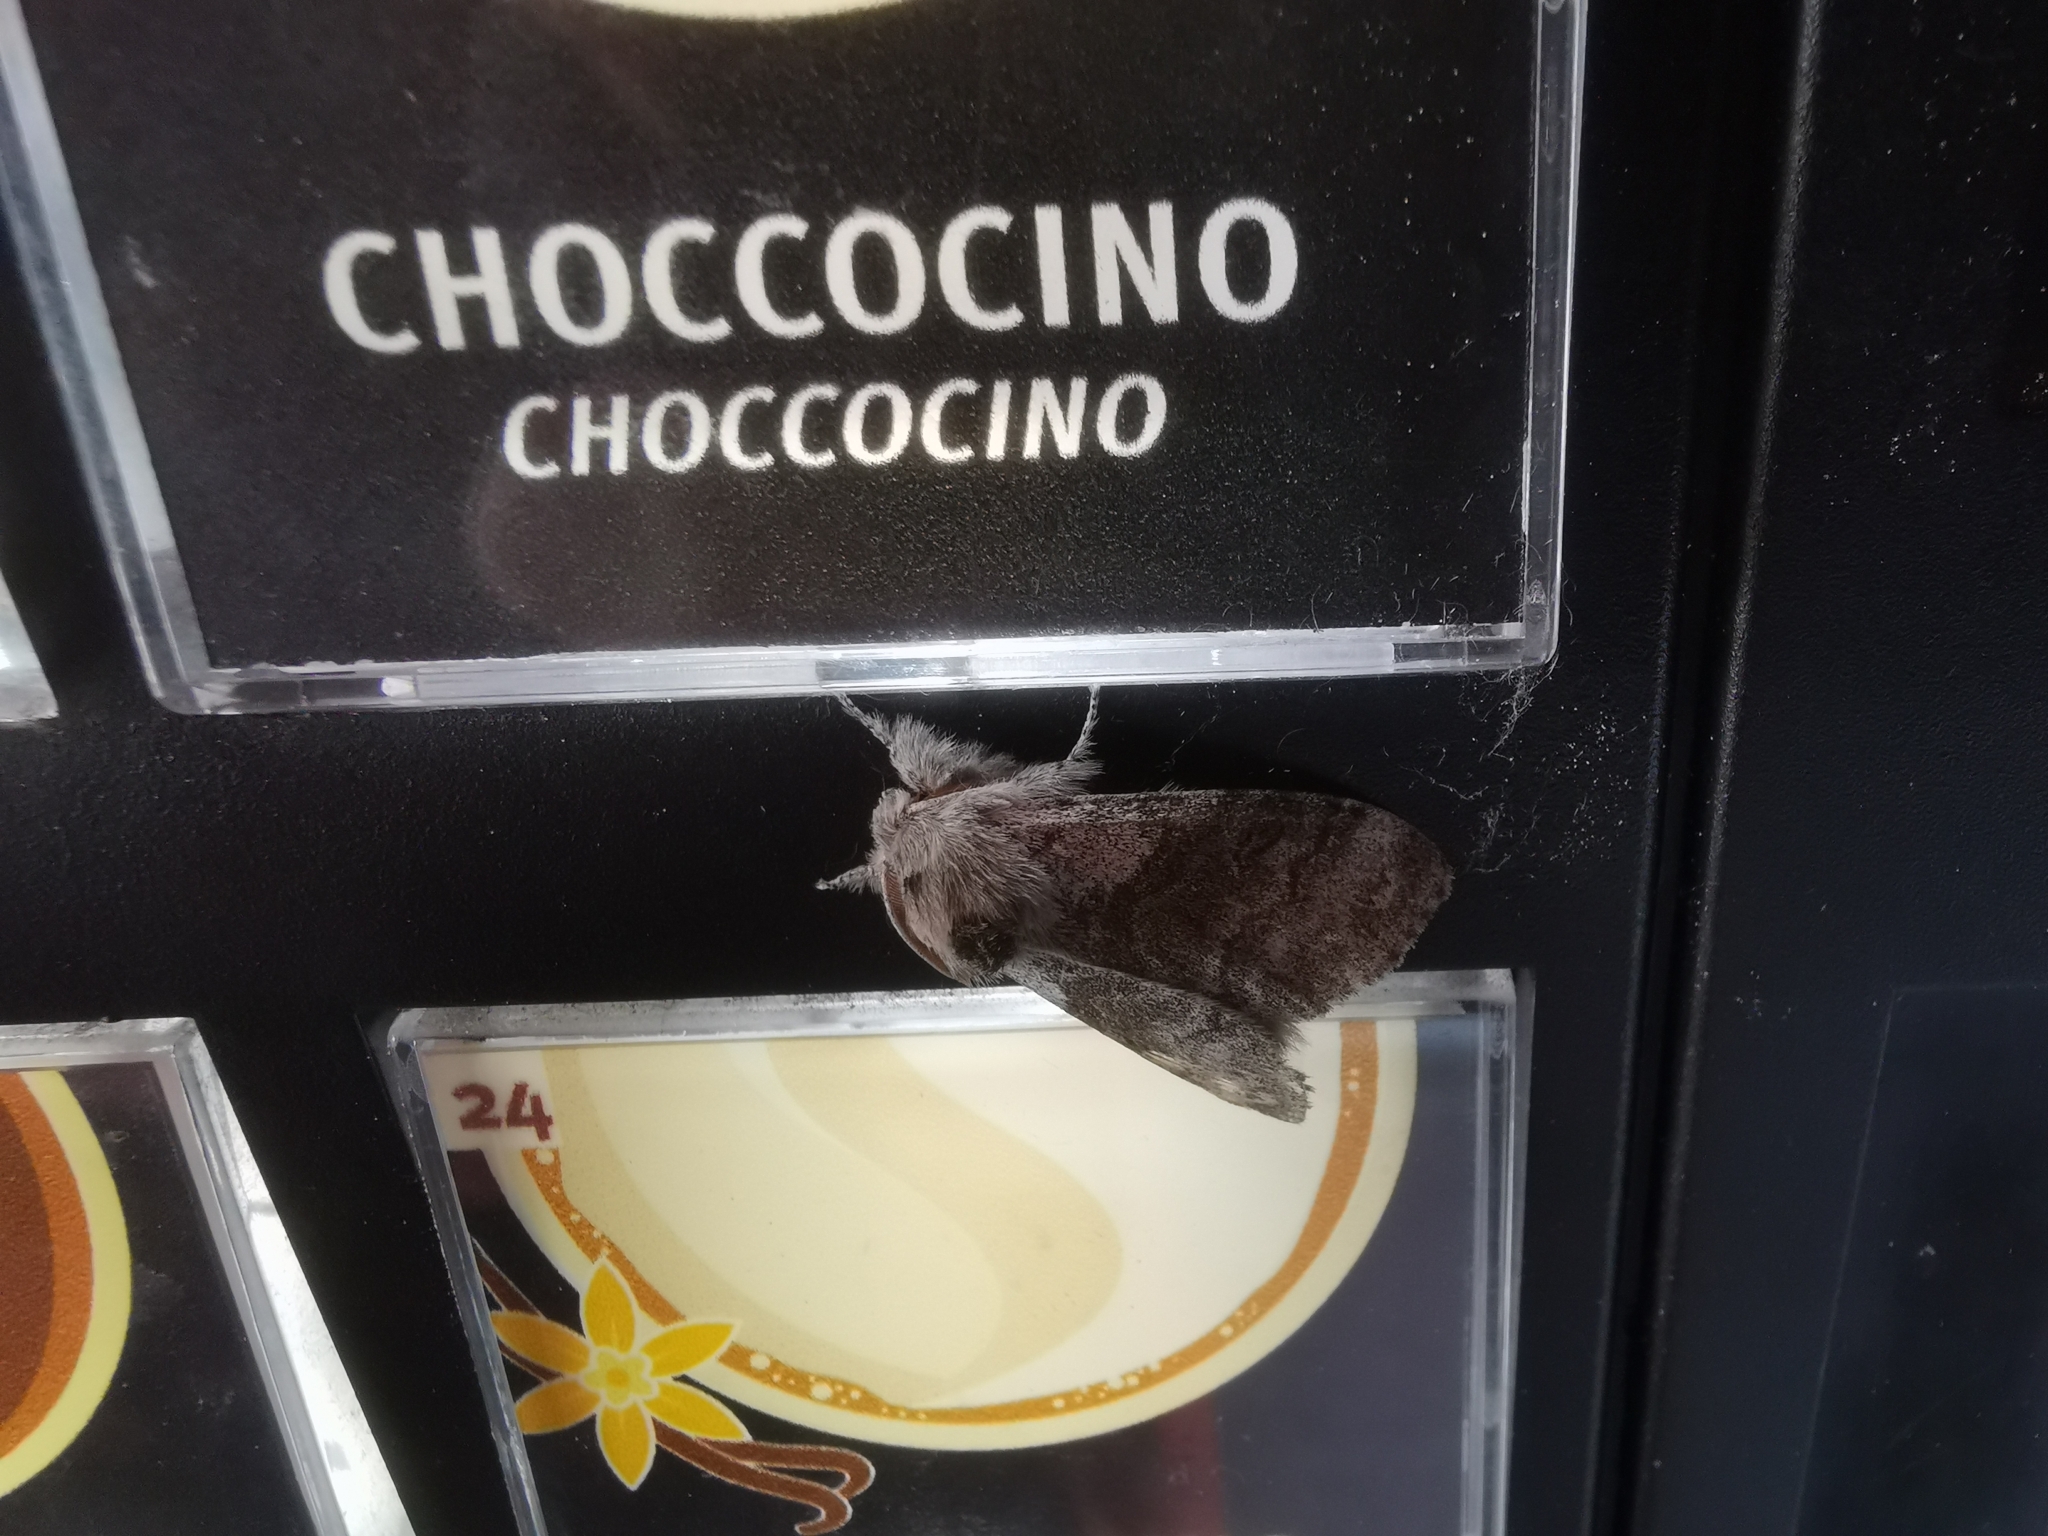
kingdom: Animalia
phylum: Arthropoda
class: Insecta
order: Lepidoptera
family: Erebidae
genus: Calliteara
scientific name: Calliteara pudibunda
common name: Pale tussock
